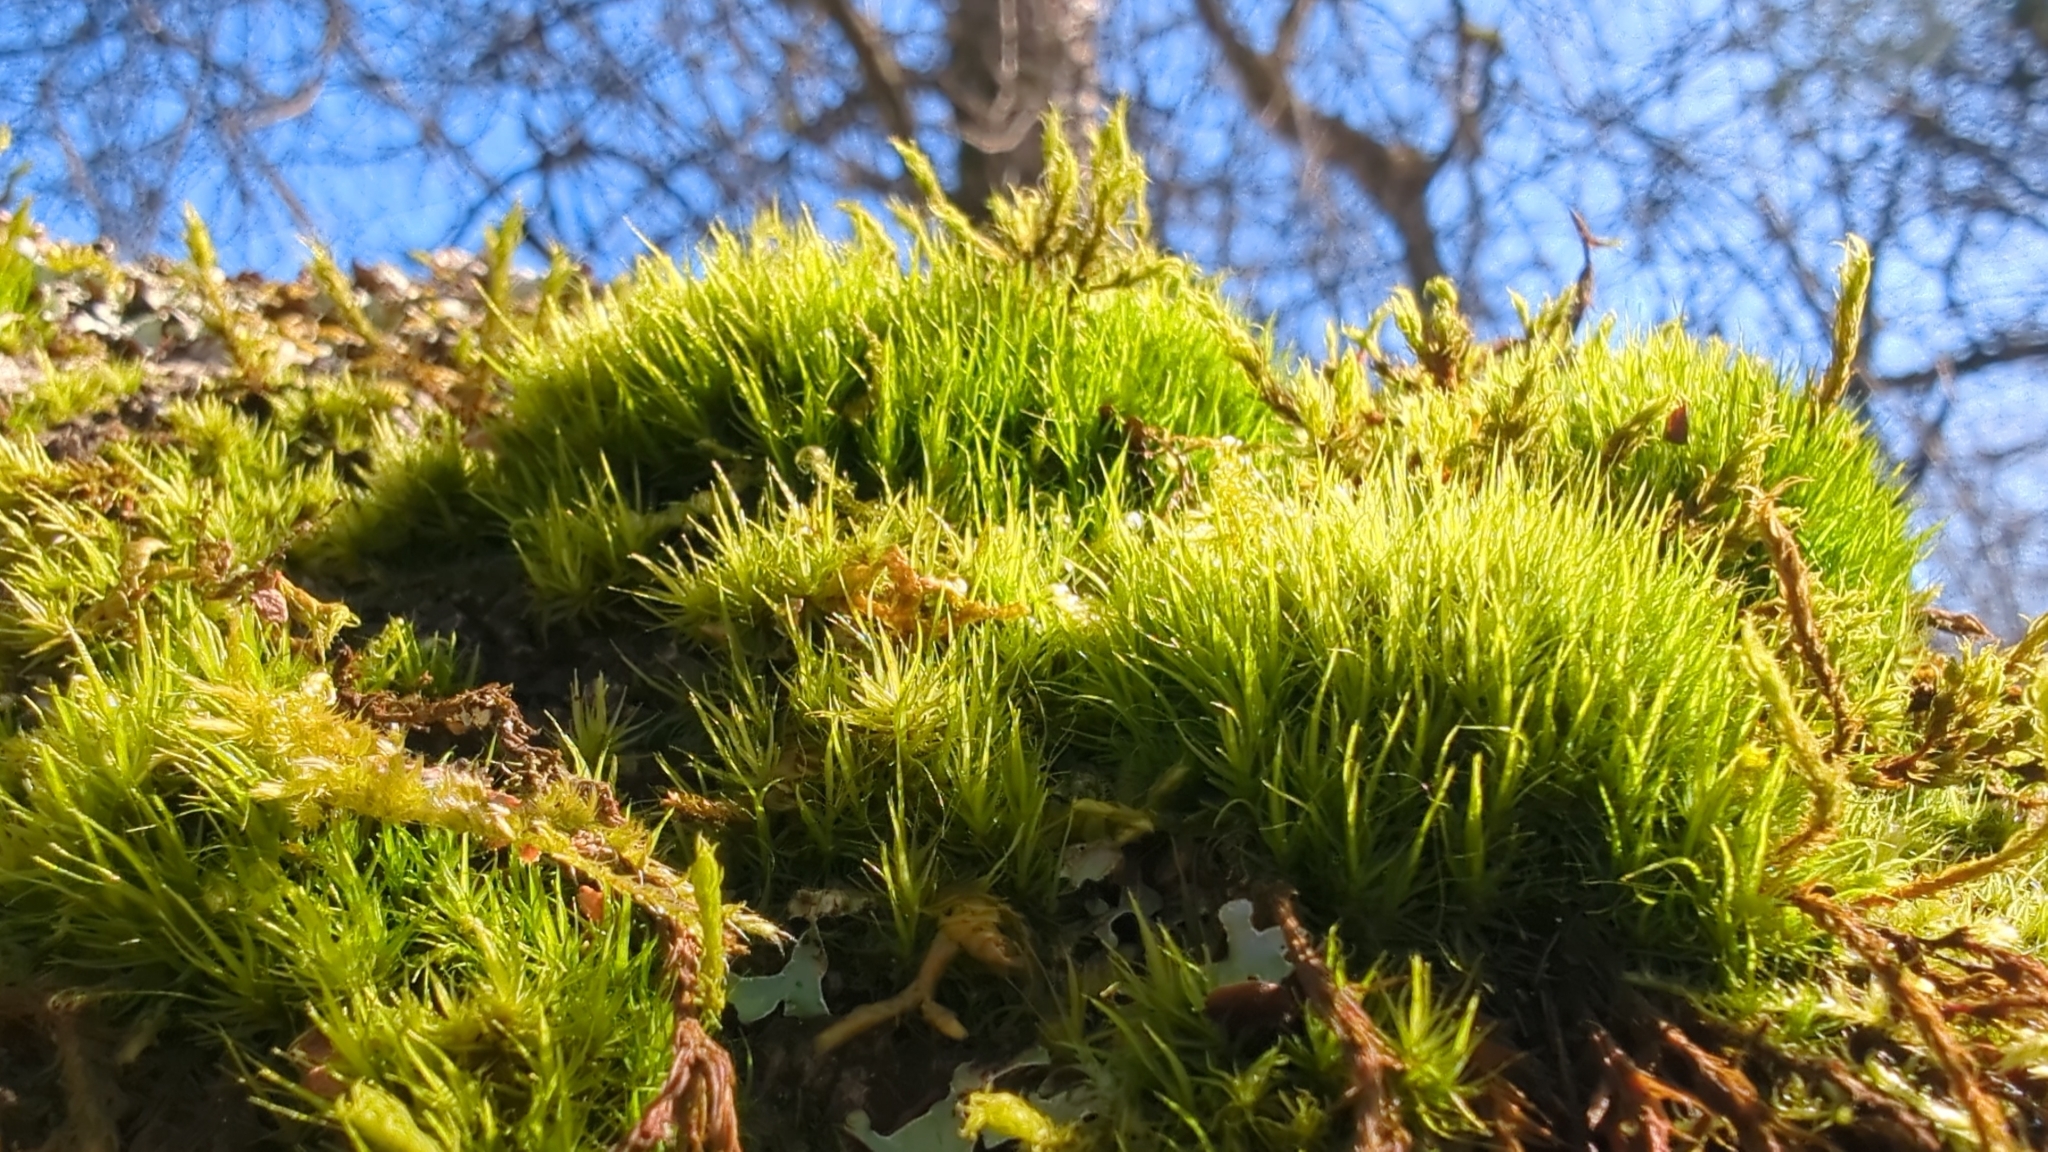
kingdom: Plantae
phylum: Bryophyta
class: Bryopsida
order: Dicranales
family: Dicranaceae
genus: Dicranum
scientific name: Dicranum scoparium
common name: Broom fork-moss
